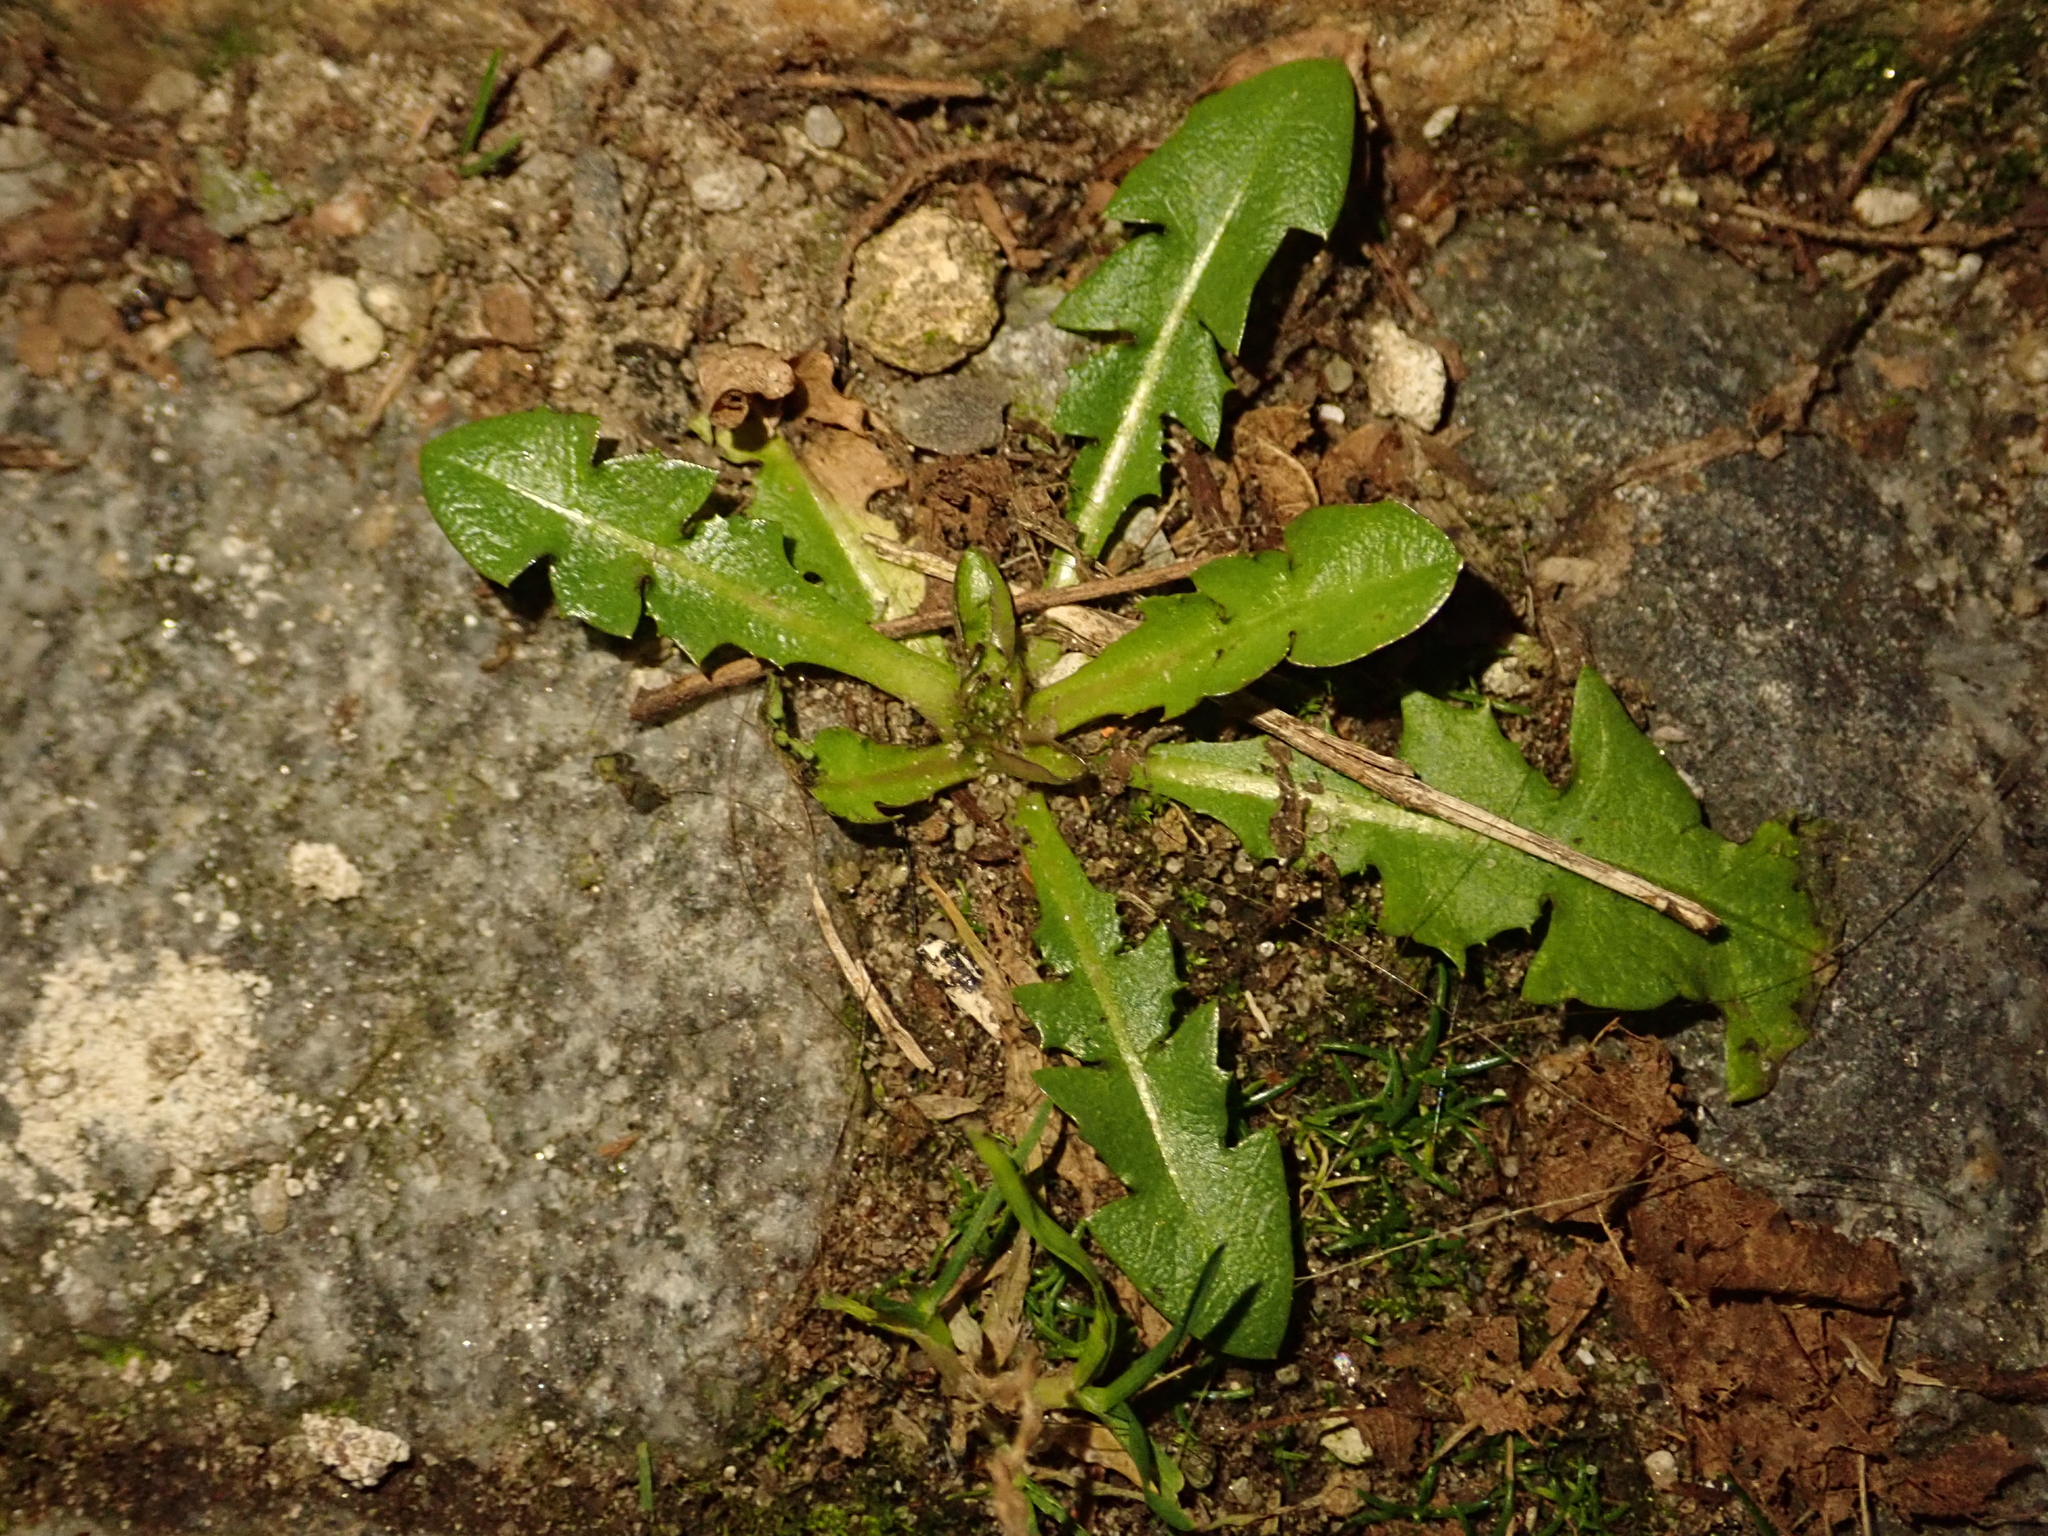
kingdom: Plantae
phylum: Tracheophyta
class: Magnoliopsida
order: Asterales
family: Asteraceae
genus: Taraxacum
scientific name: Taraxacum officinale
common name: Common dandelion
